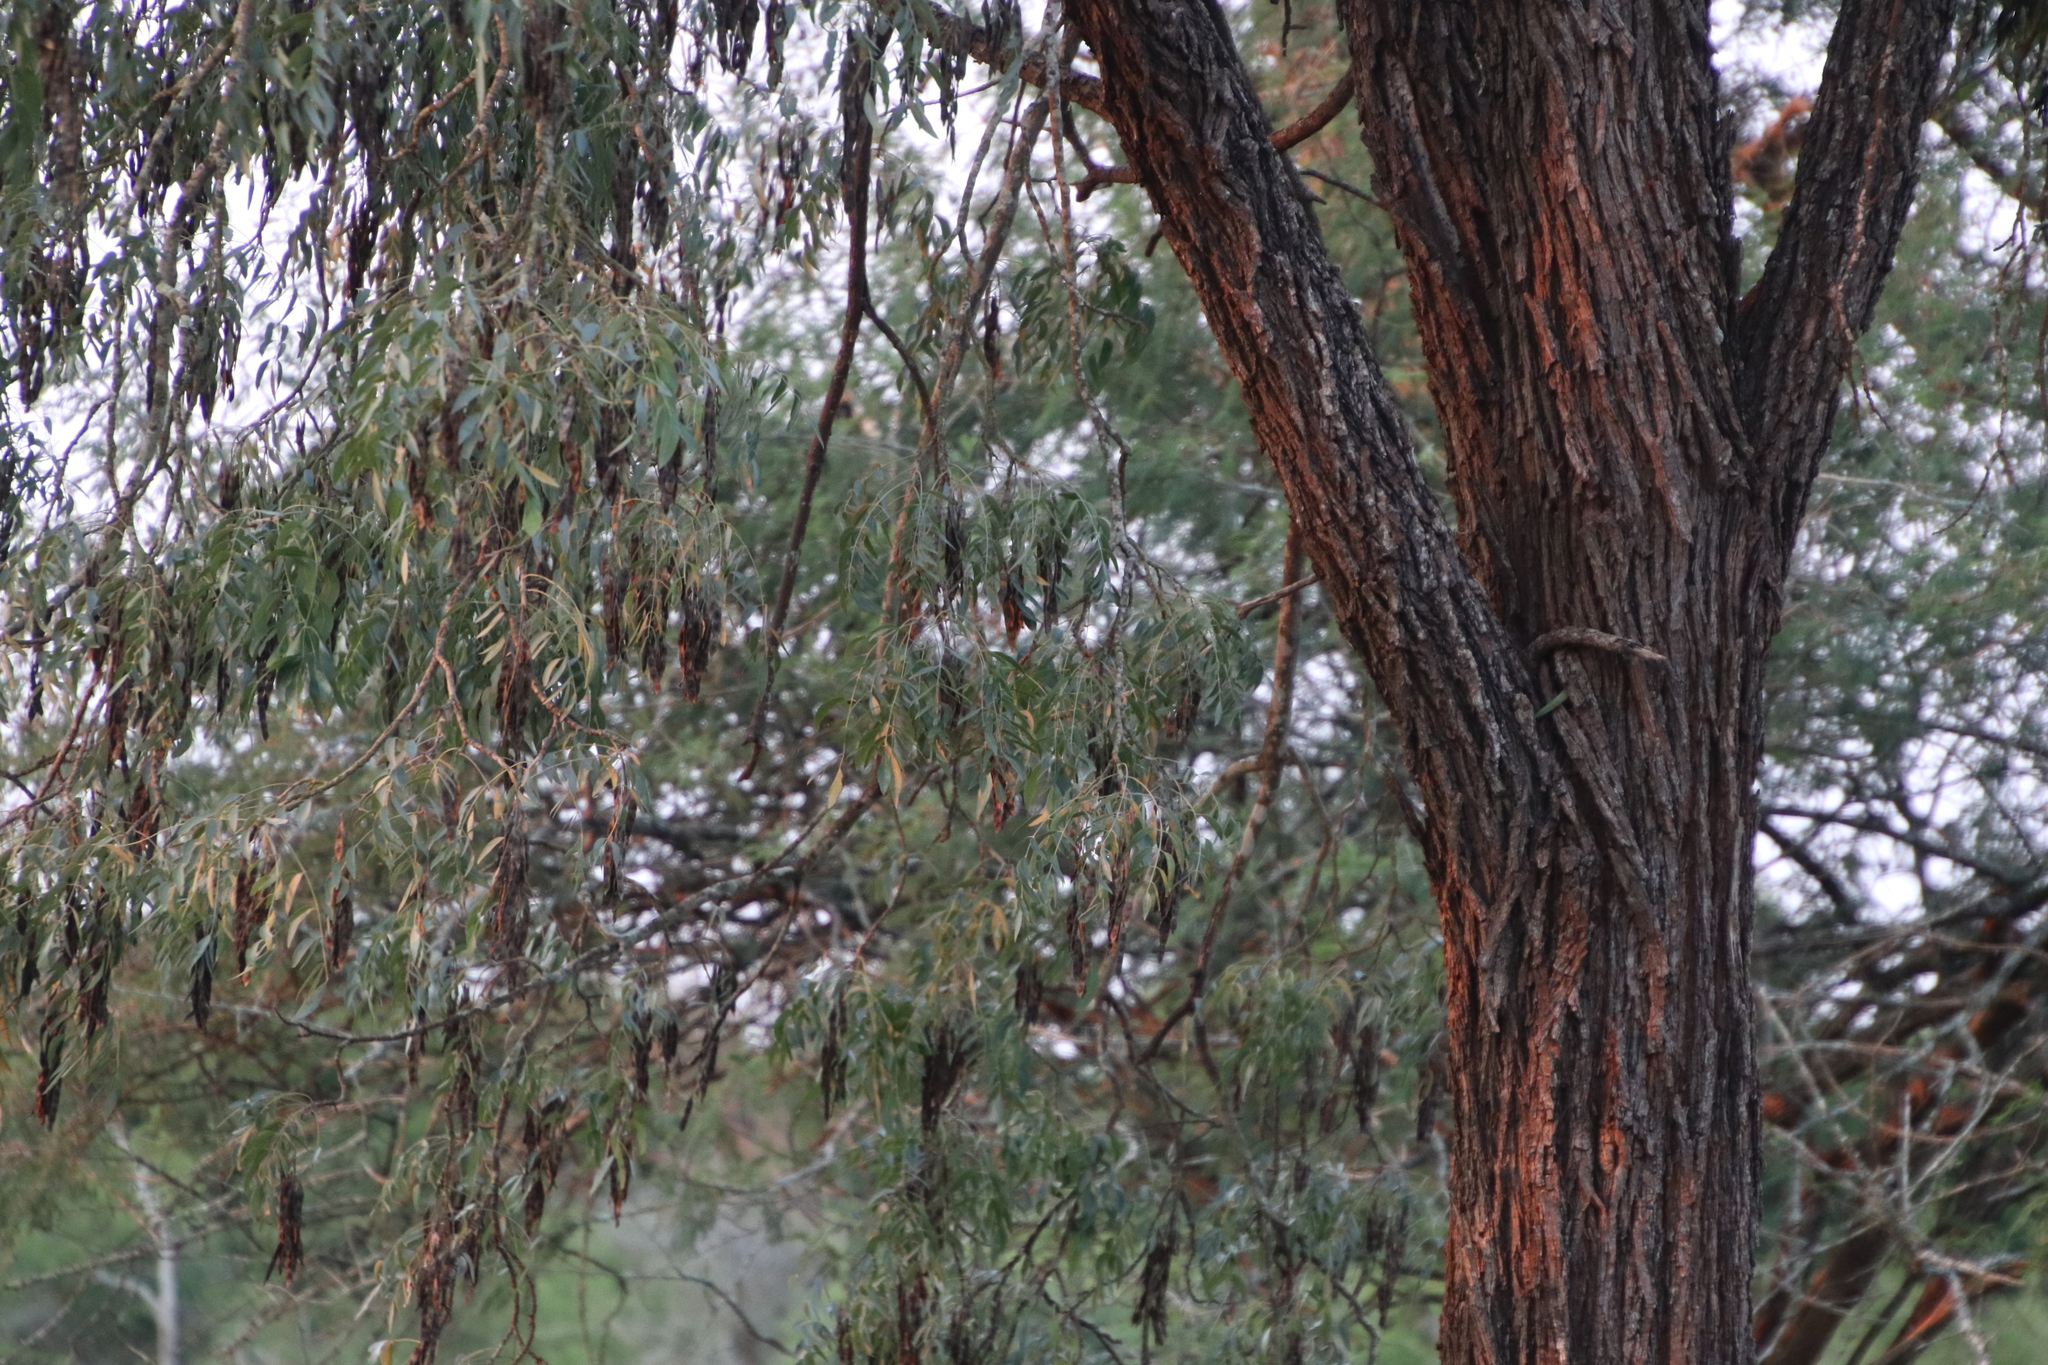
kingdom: Plantae
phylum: Tracheophyta
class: Magnoliopsida
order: Fabales
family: Fabaceae
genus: Bolusanthus
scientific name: Bolusanthus speciosus
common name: Tree wisteria
